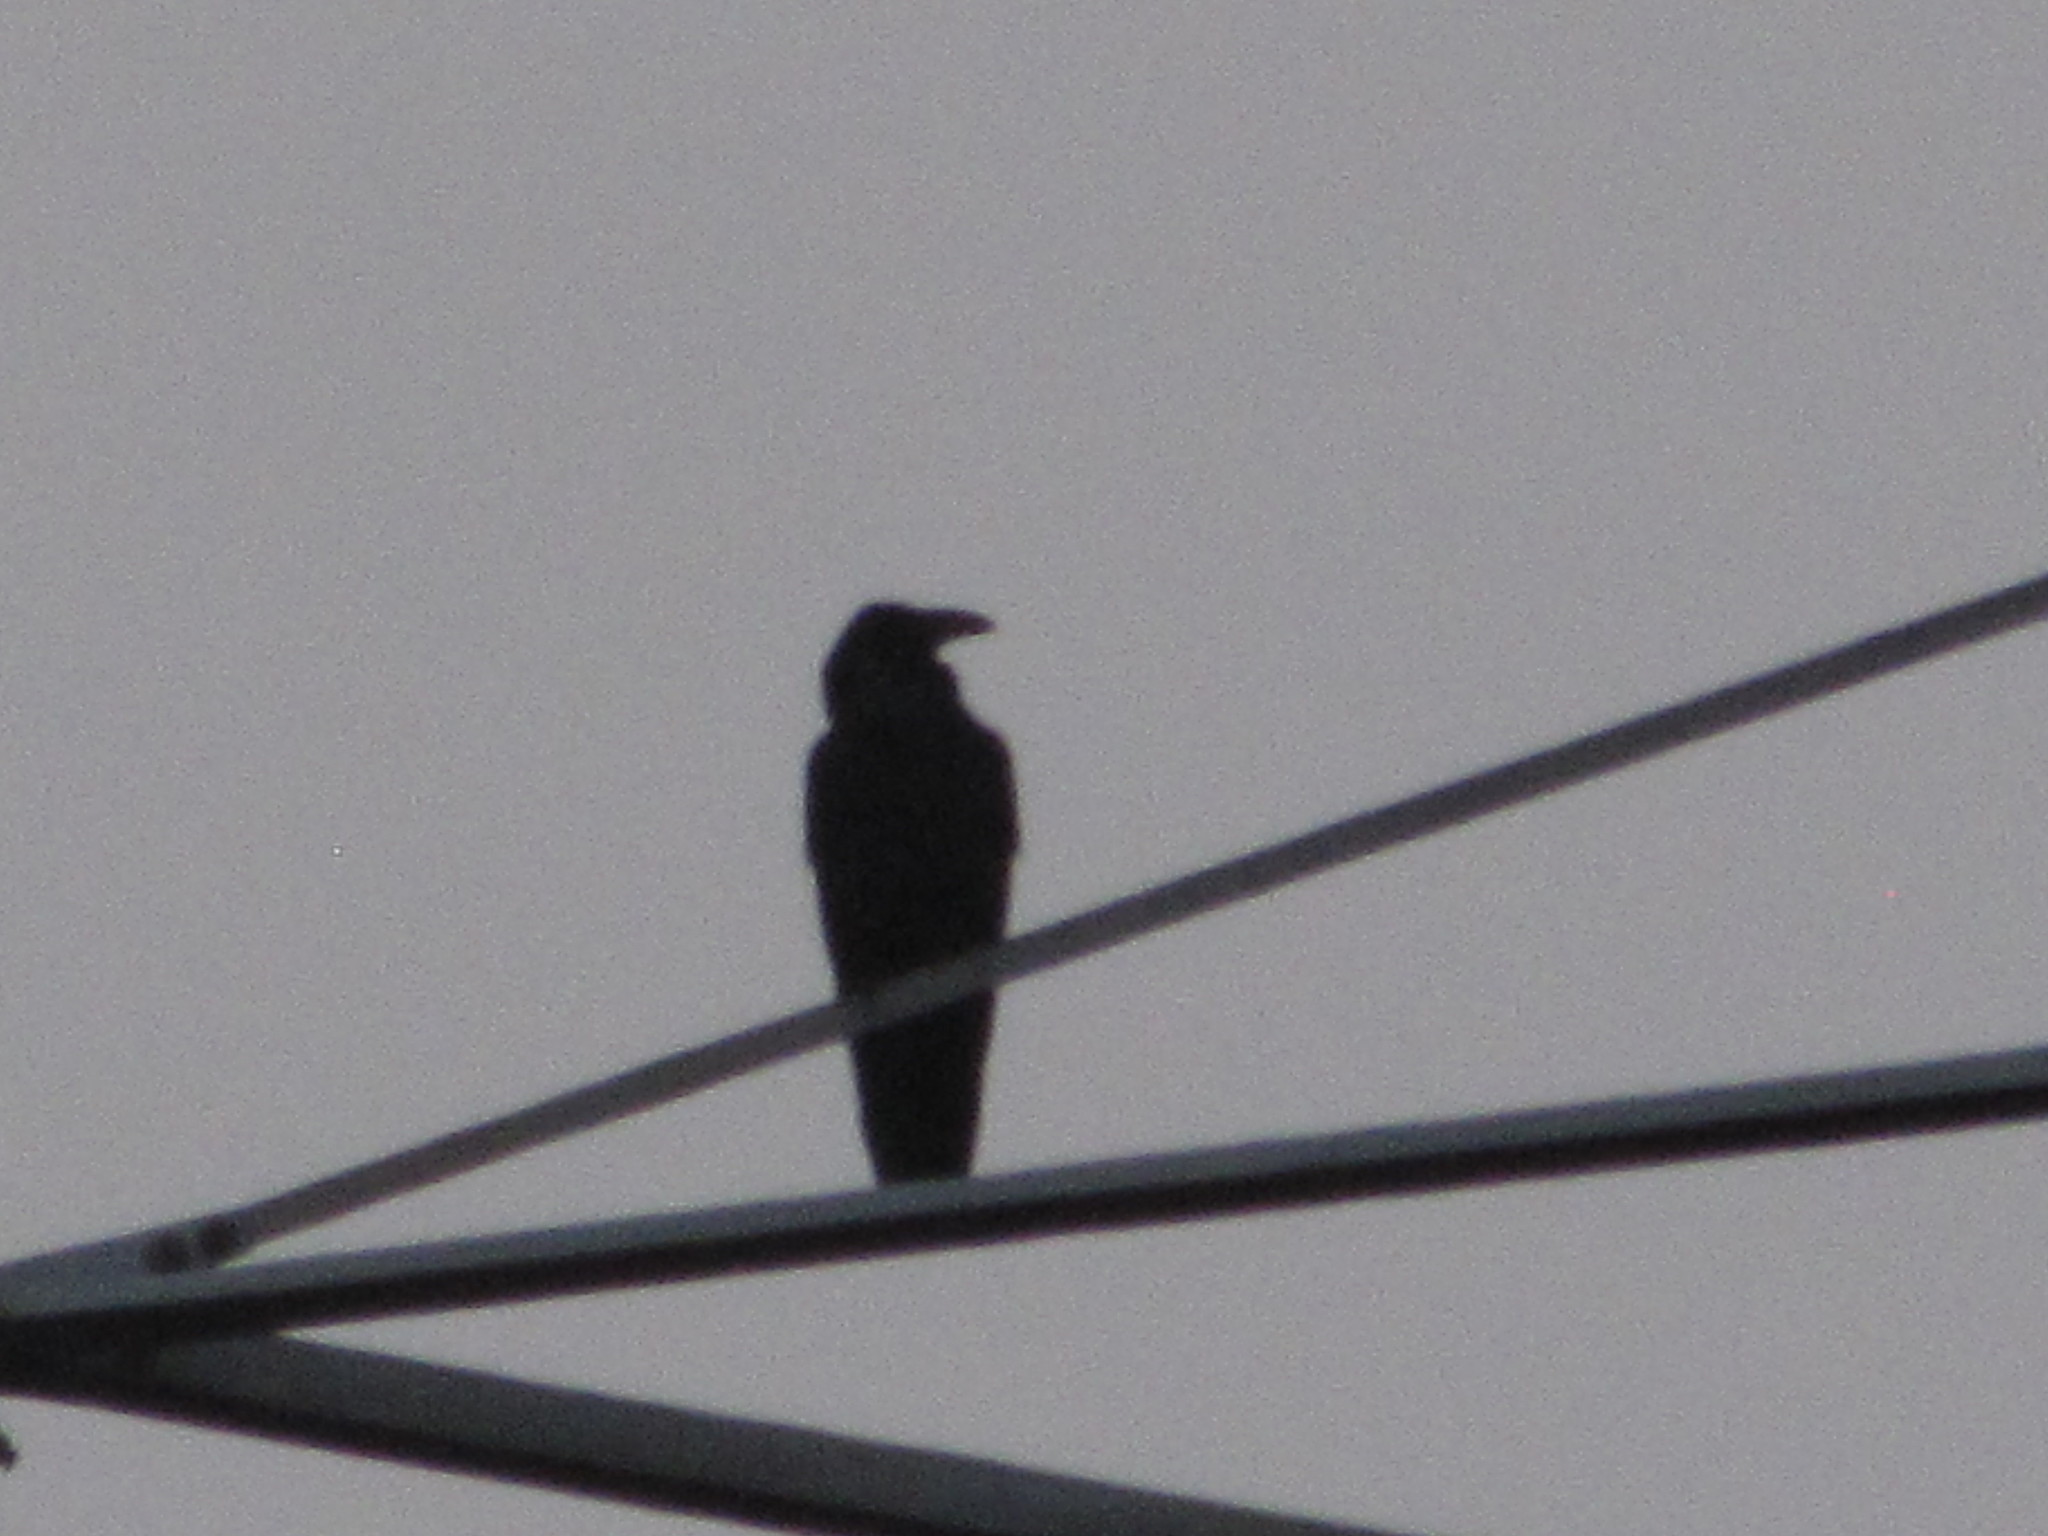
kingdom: Animalia
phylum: Chordata
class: Aves
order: Passeriformes
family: Corvidae
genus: Corvus
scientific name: Corvus corax
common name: Common raven
